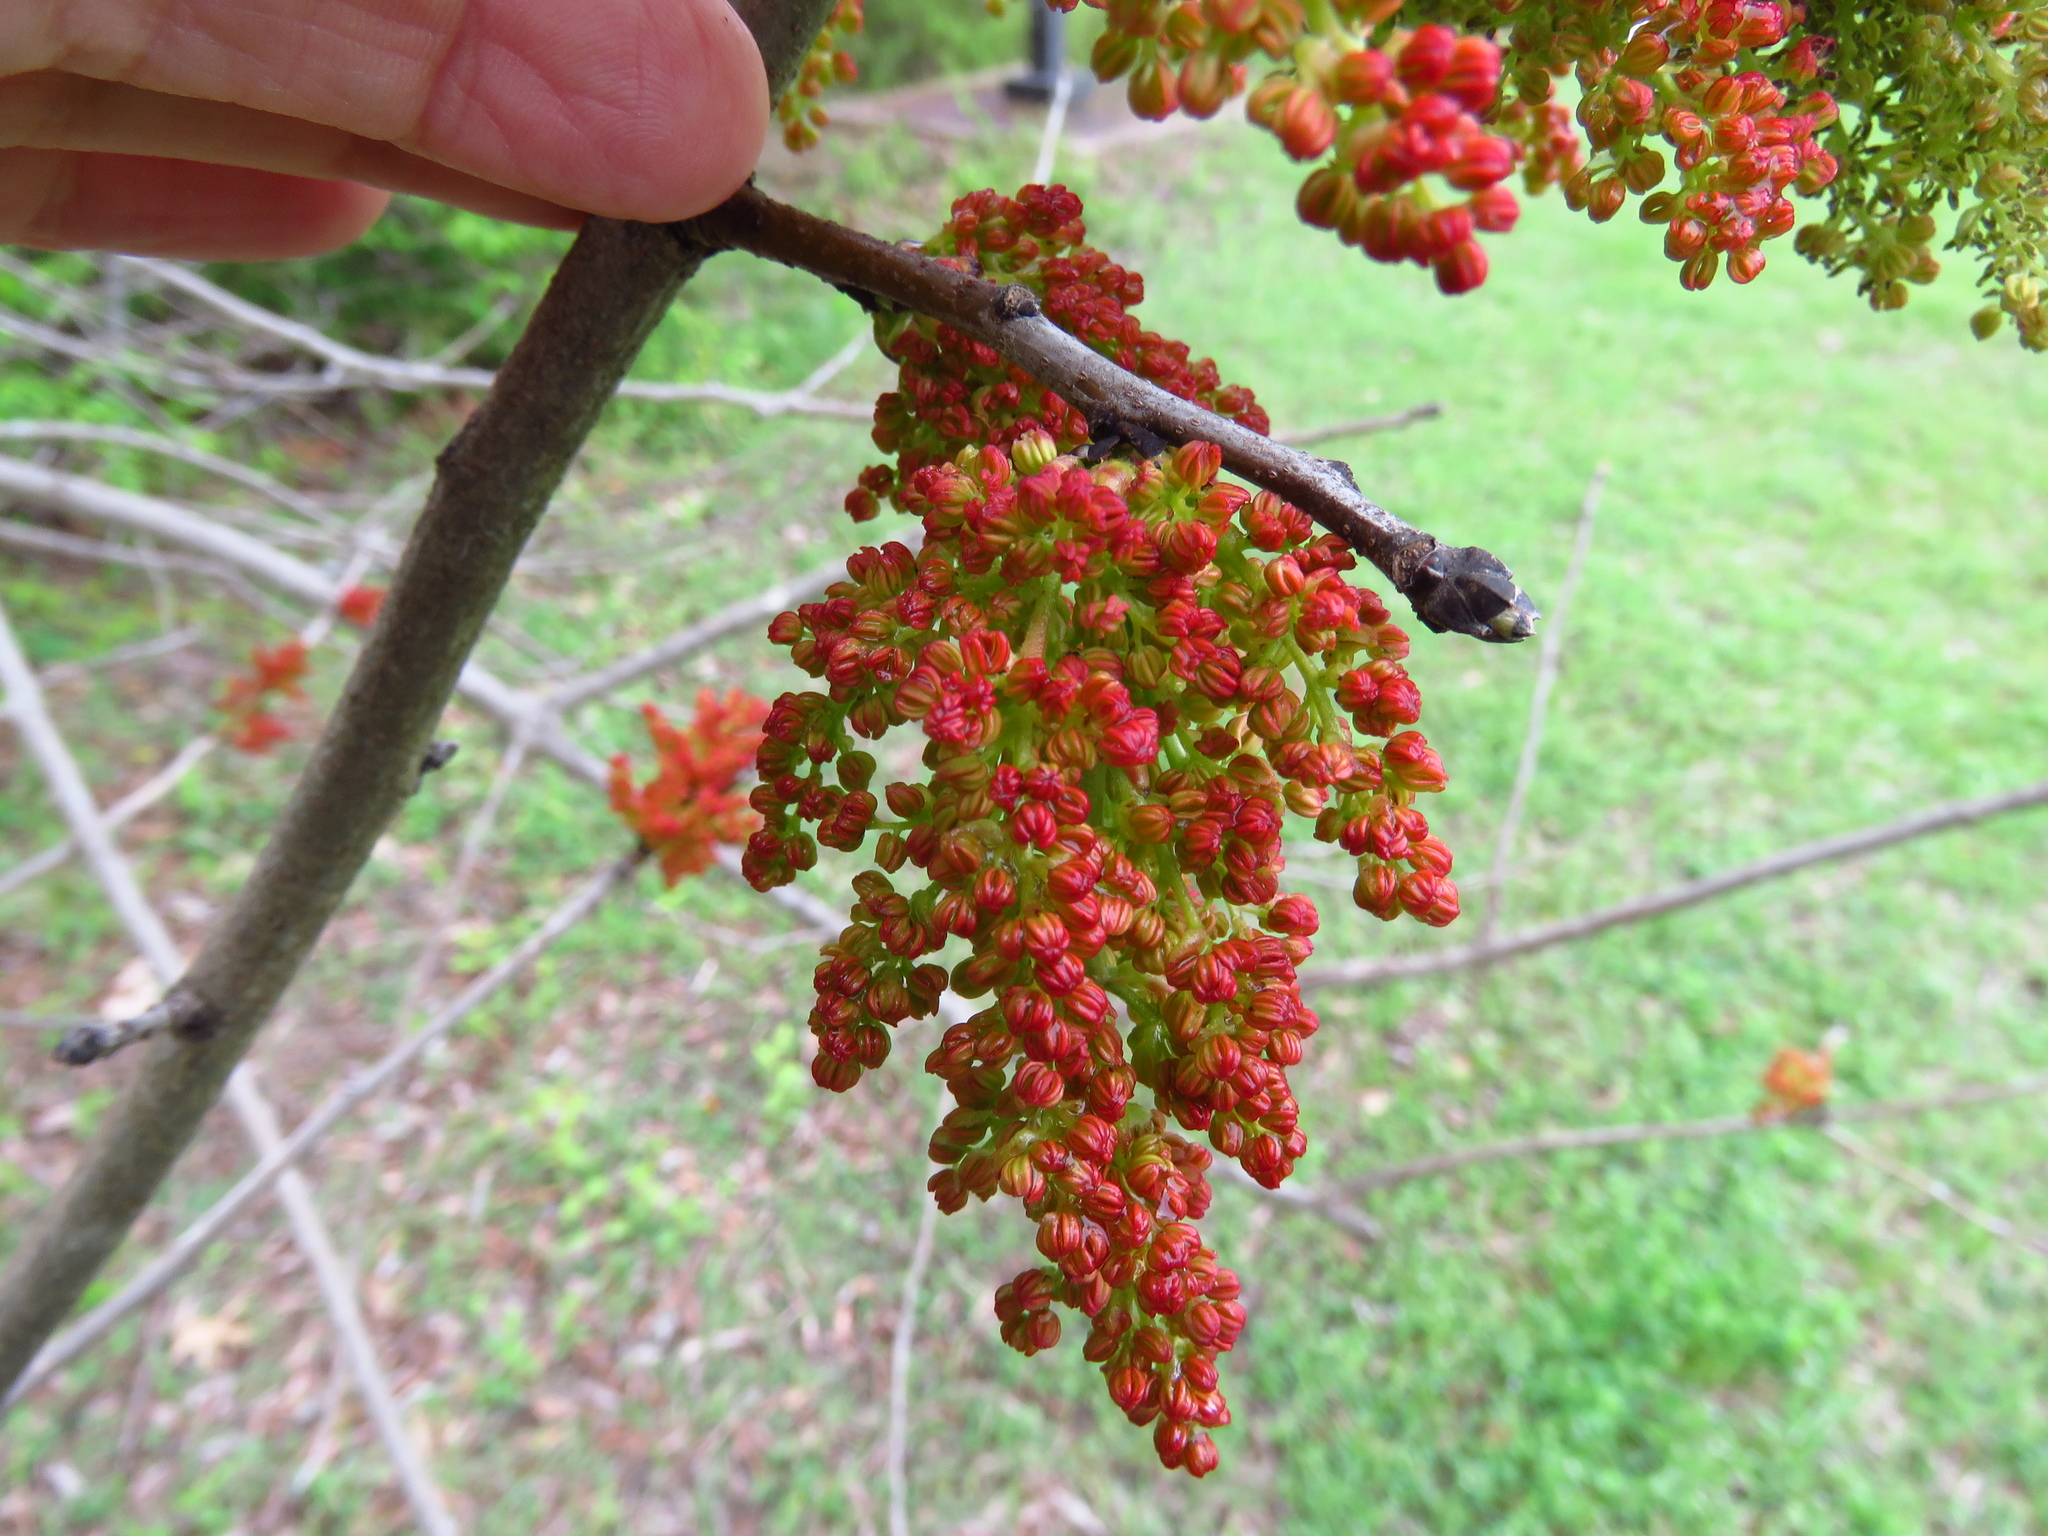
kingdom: Plantae
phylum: Tracheophyta
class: Magnoliopsida
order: Sapindales
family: Anacardiaceae
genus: Pistacia
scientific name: Pistacia chinensis
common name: Chinese pistache
